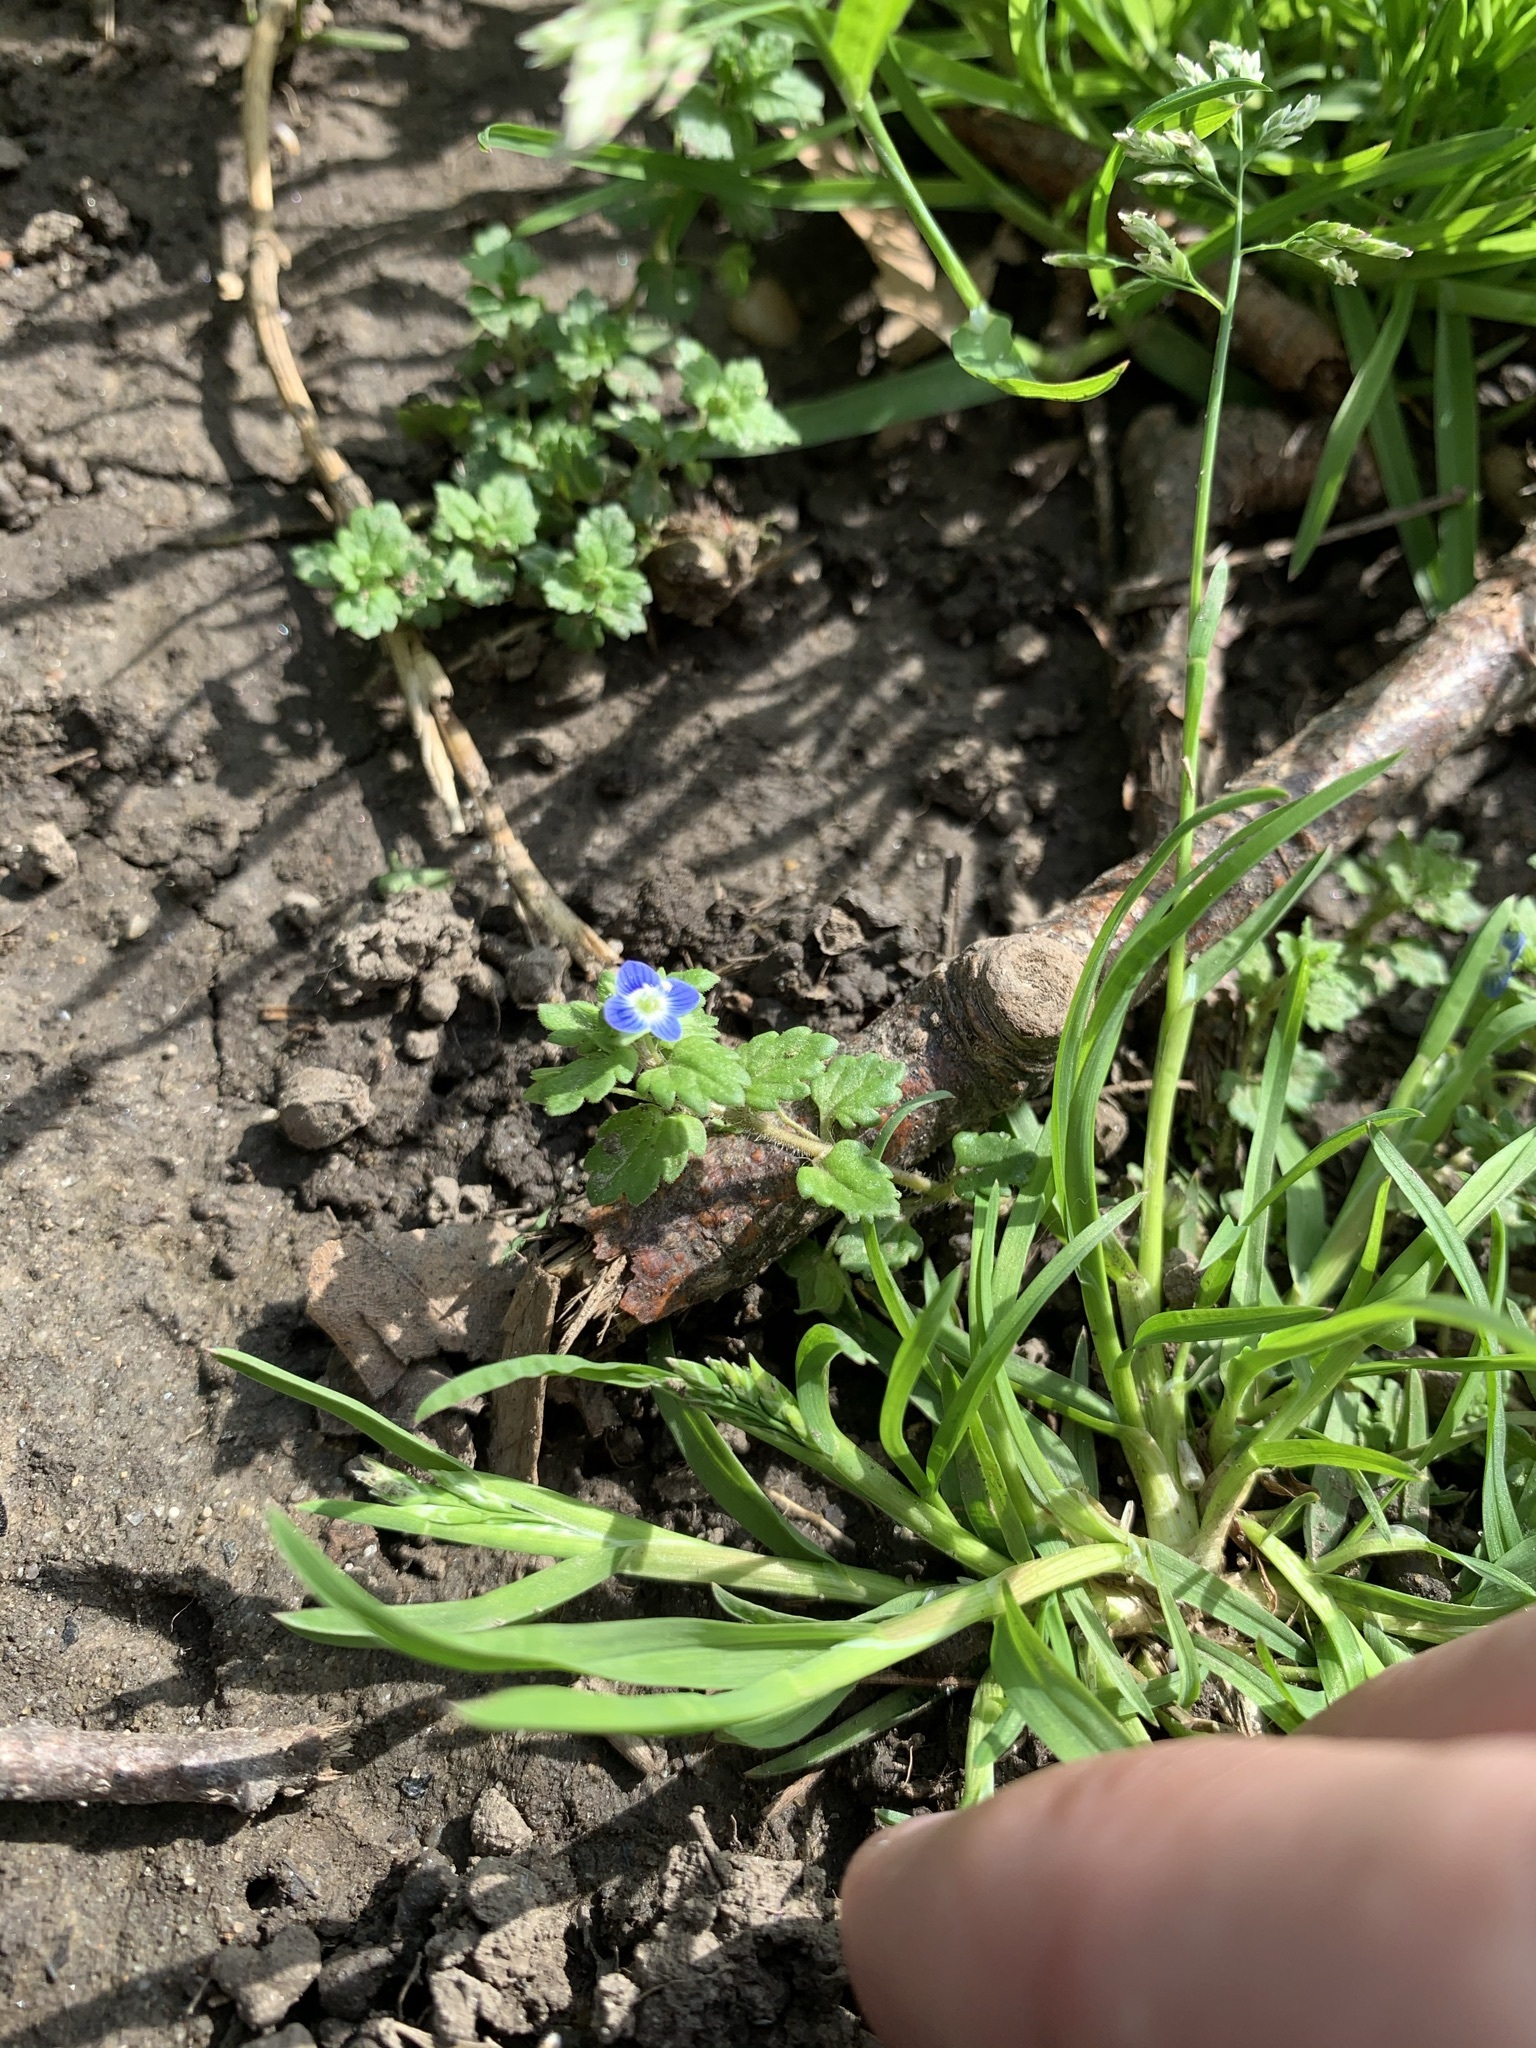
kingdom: Plantae
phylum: Tracheophyta
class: Magnoliopsida
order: Lamiales
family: Plantaginaceae
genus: Veronica
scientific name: Veronica polita
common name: Grey field-speedwell
